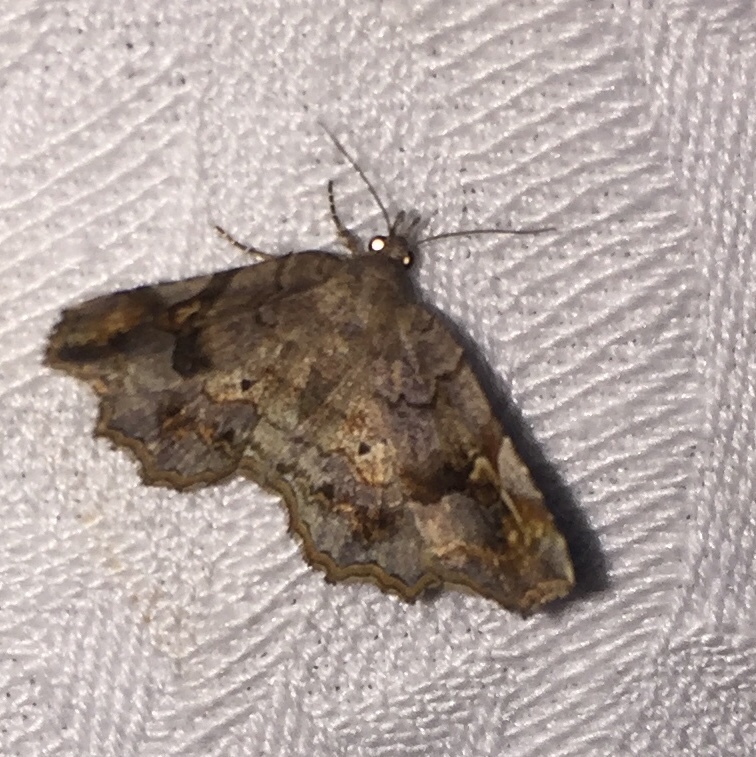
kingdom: Animalia
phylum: Arthropoda
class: Insecta
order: Lepidoptera
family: Erebidae
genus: Pangrapta
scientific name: Pangrapta decoralis
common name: Decorated owlet
